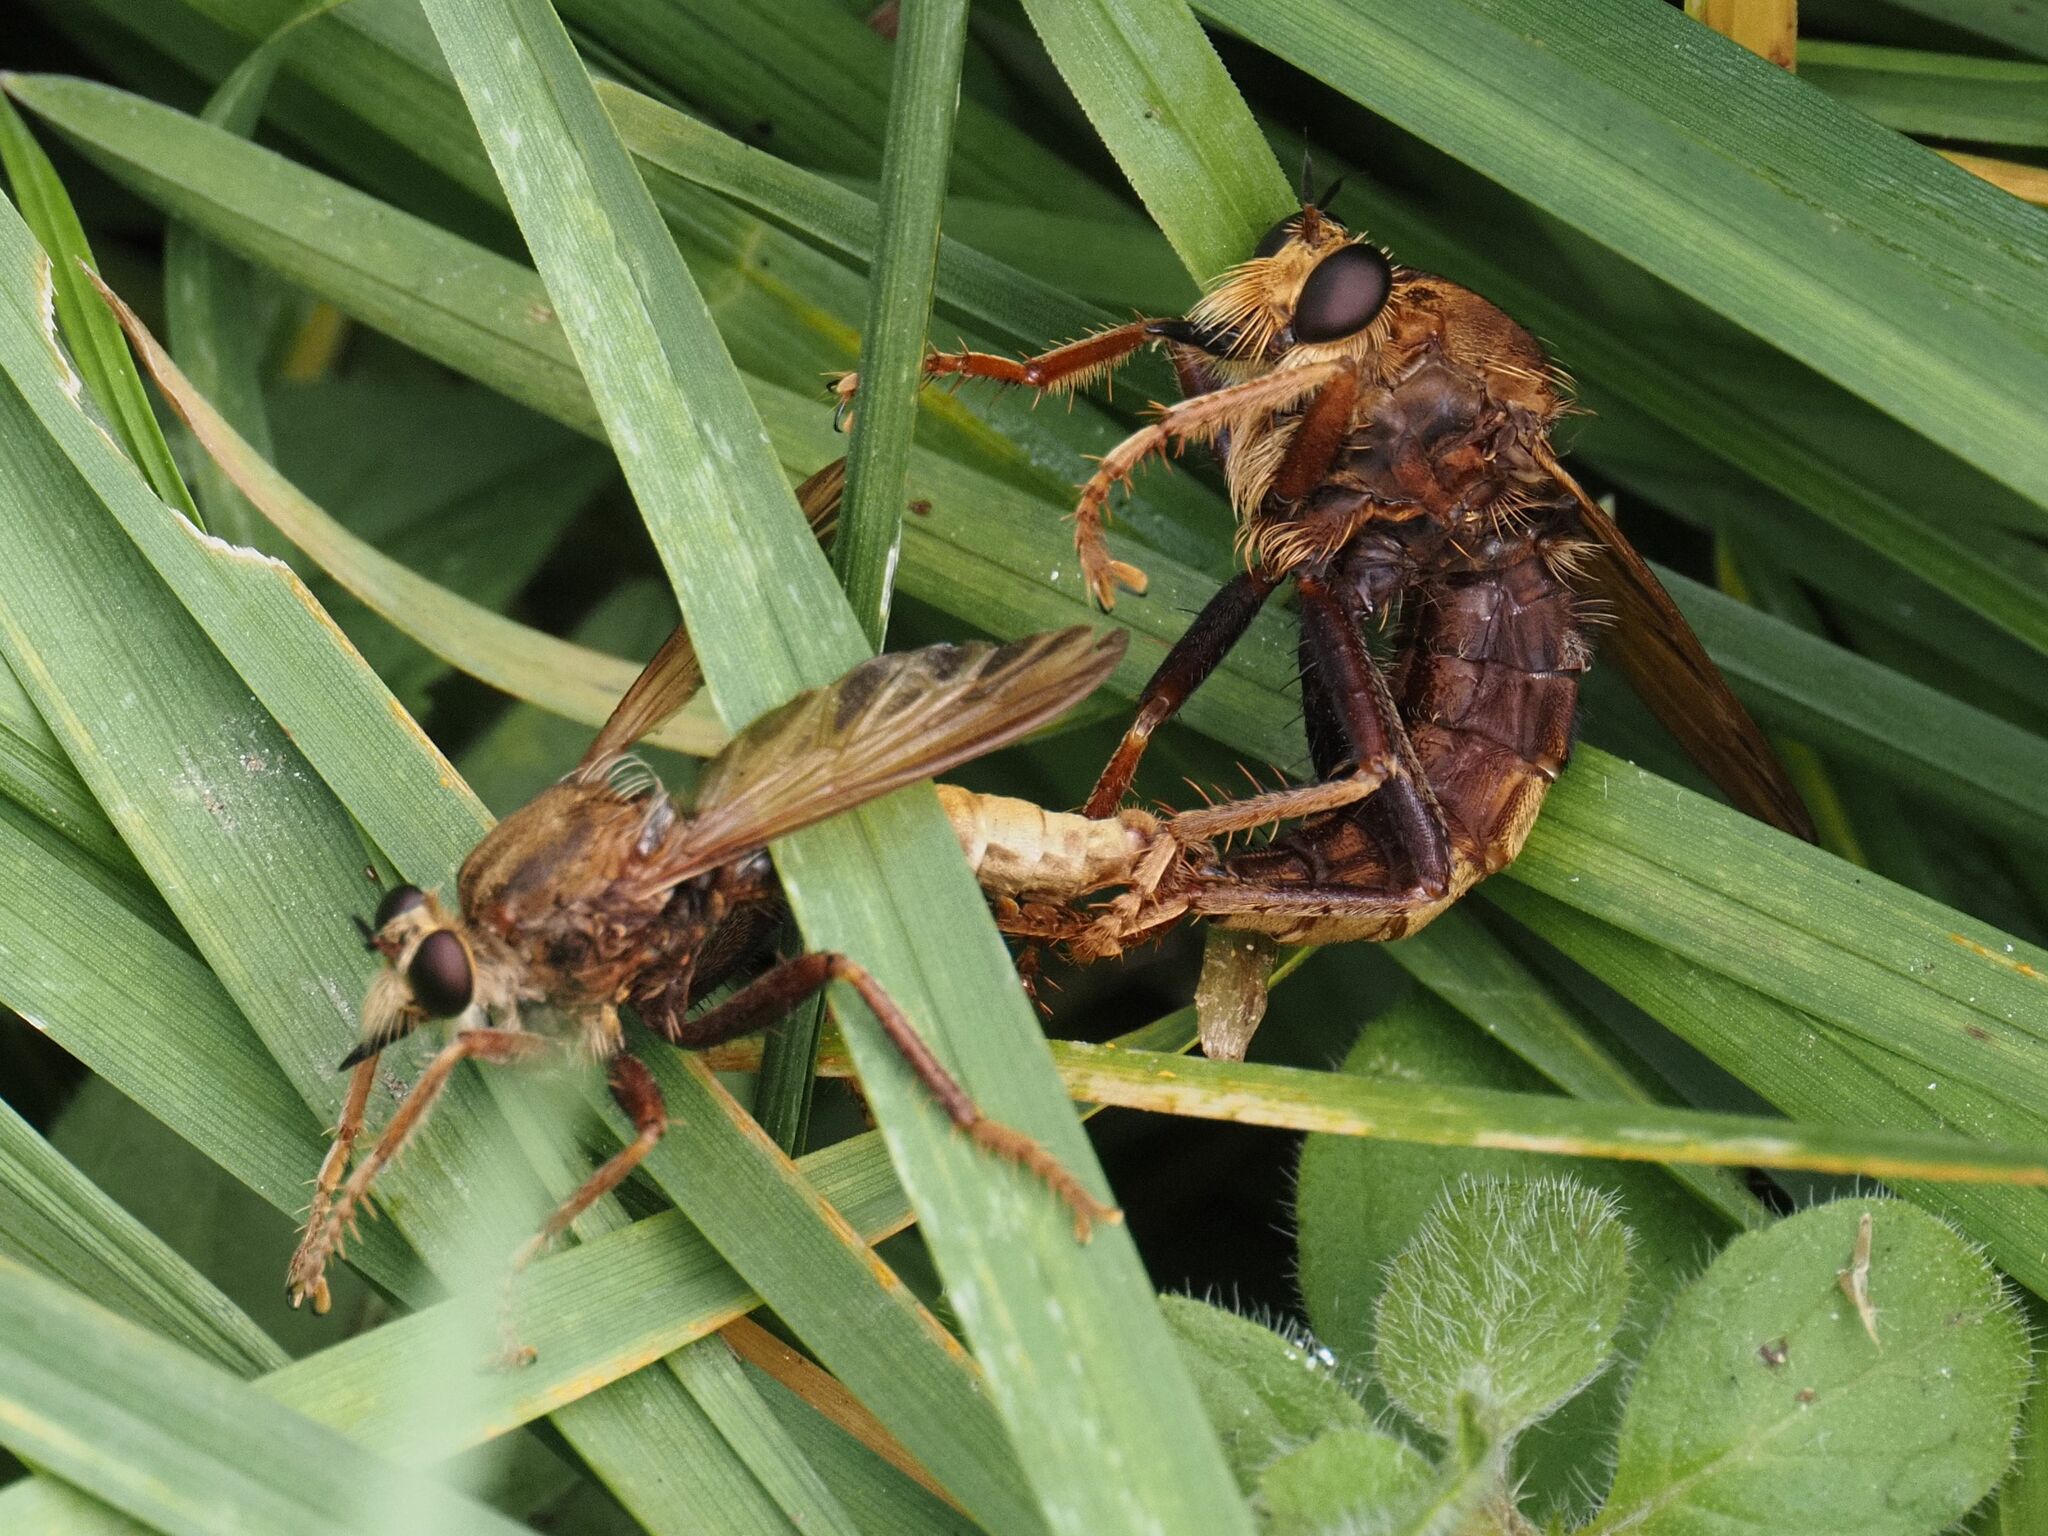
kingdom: Animalia
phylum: Arthropoda
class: Insecta
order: Diptera
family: Asilidae
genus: Asilus
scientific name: Asilus crabroniformis
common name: Hornet robberfly
